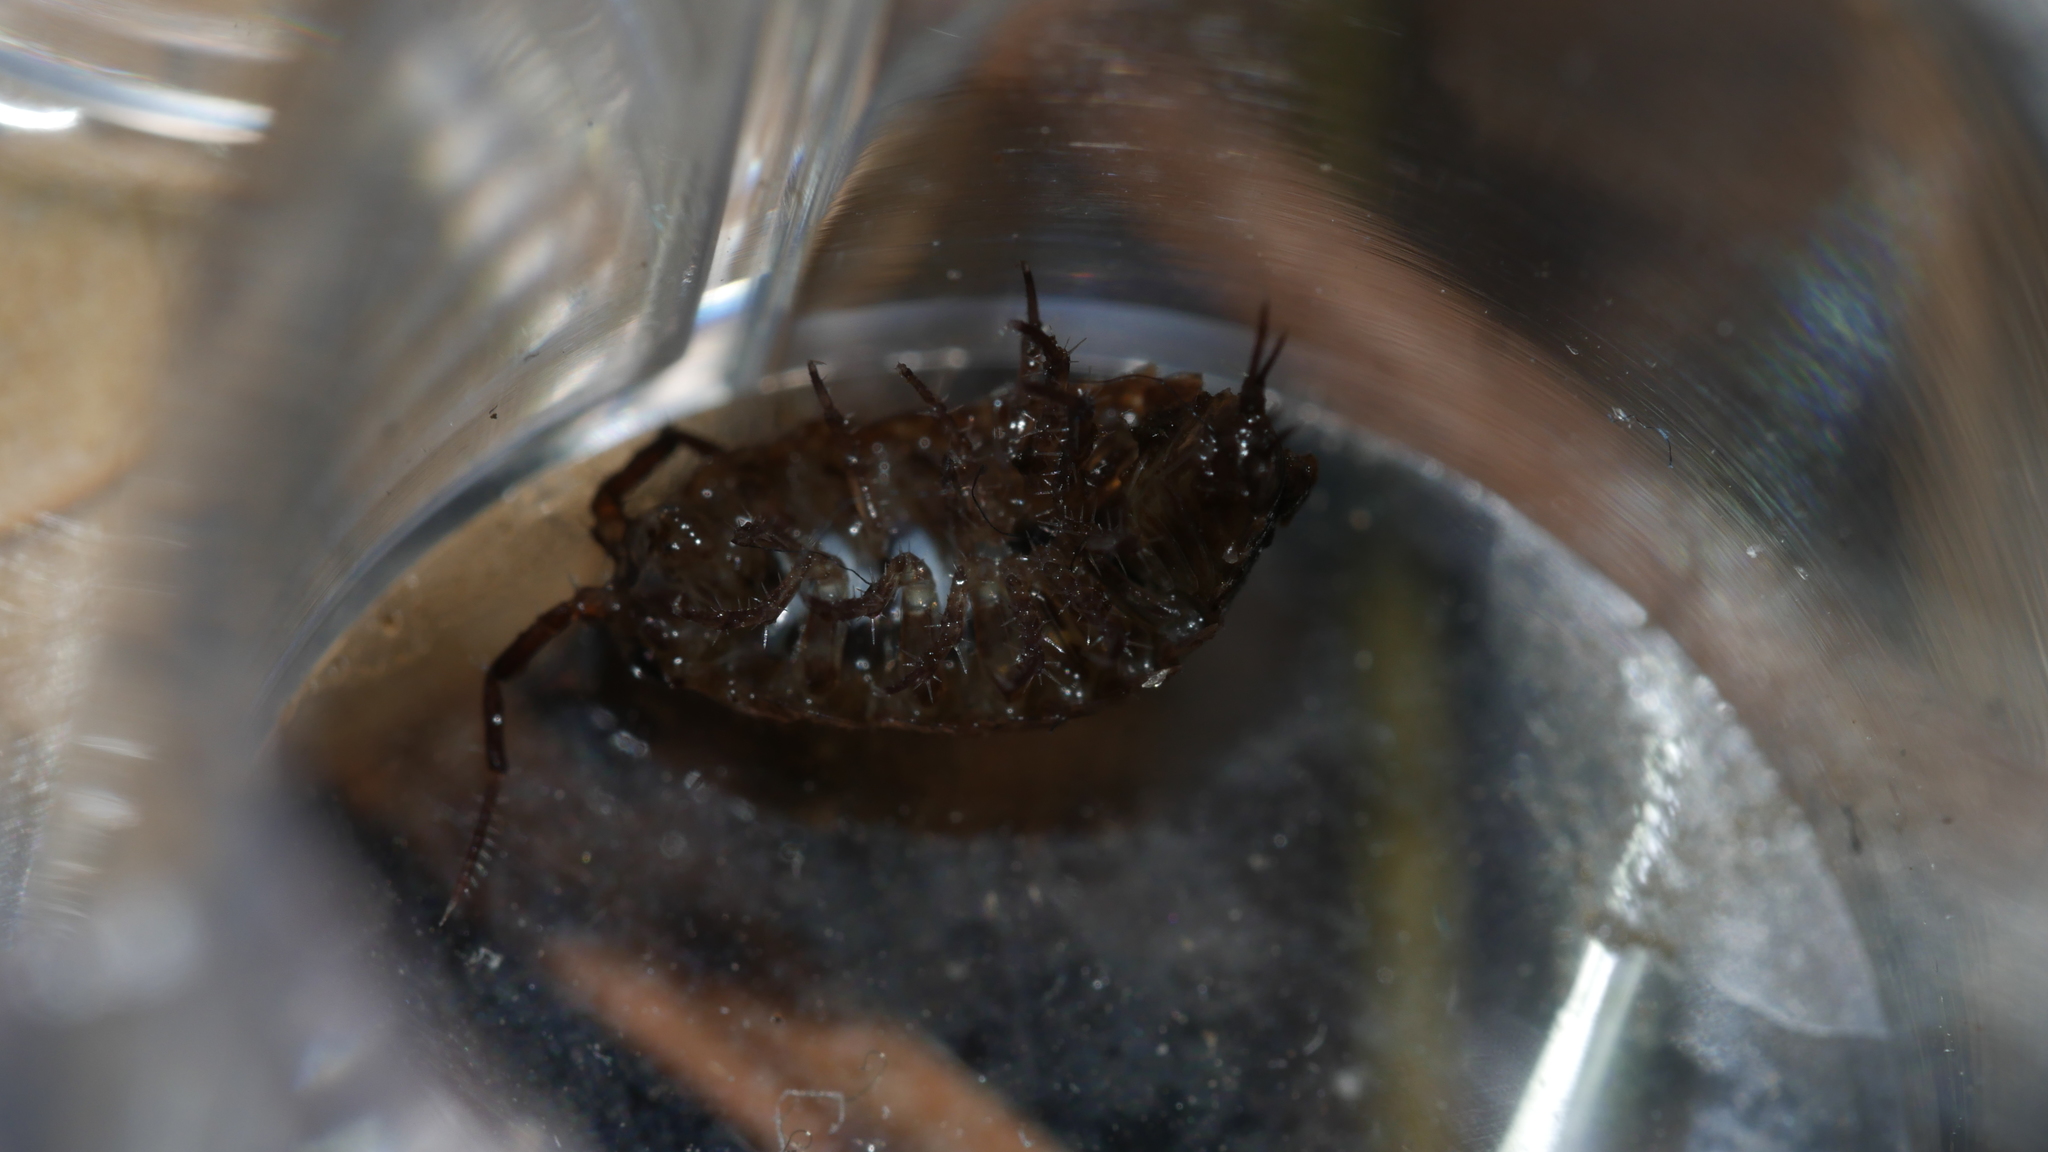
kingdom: Animalia
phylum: Arthropoda
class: Malacostraca
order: Isopoda
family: Ligiidae
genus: Ligidium
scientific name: Ligidium elrodii
